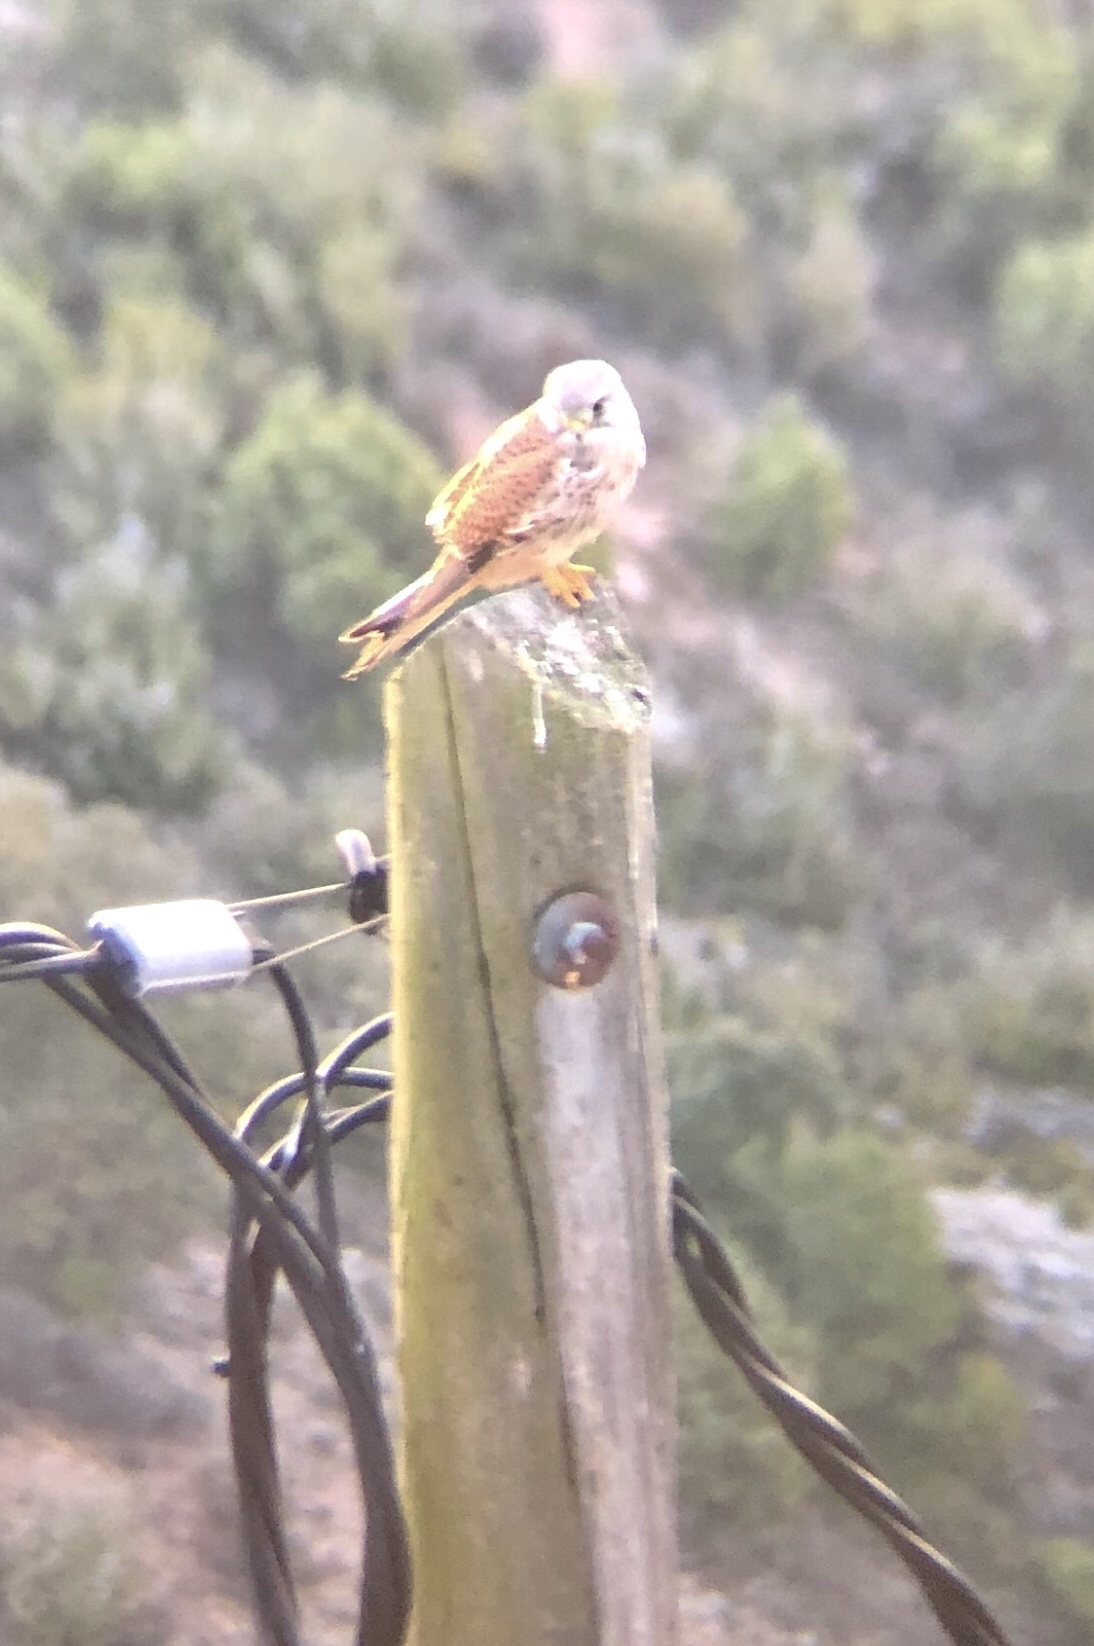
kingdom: Animalia
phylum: Chordata
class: Aves
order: Falconiformes
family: Falconidae
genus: Falco
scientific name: Falco tinnunculus
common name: Common kestrel
